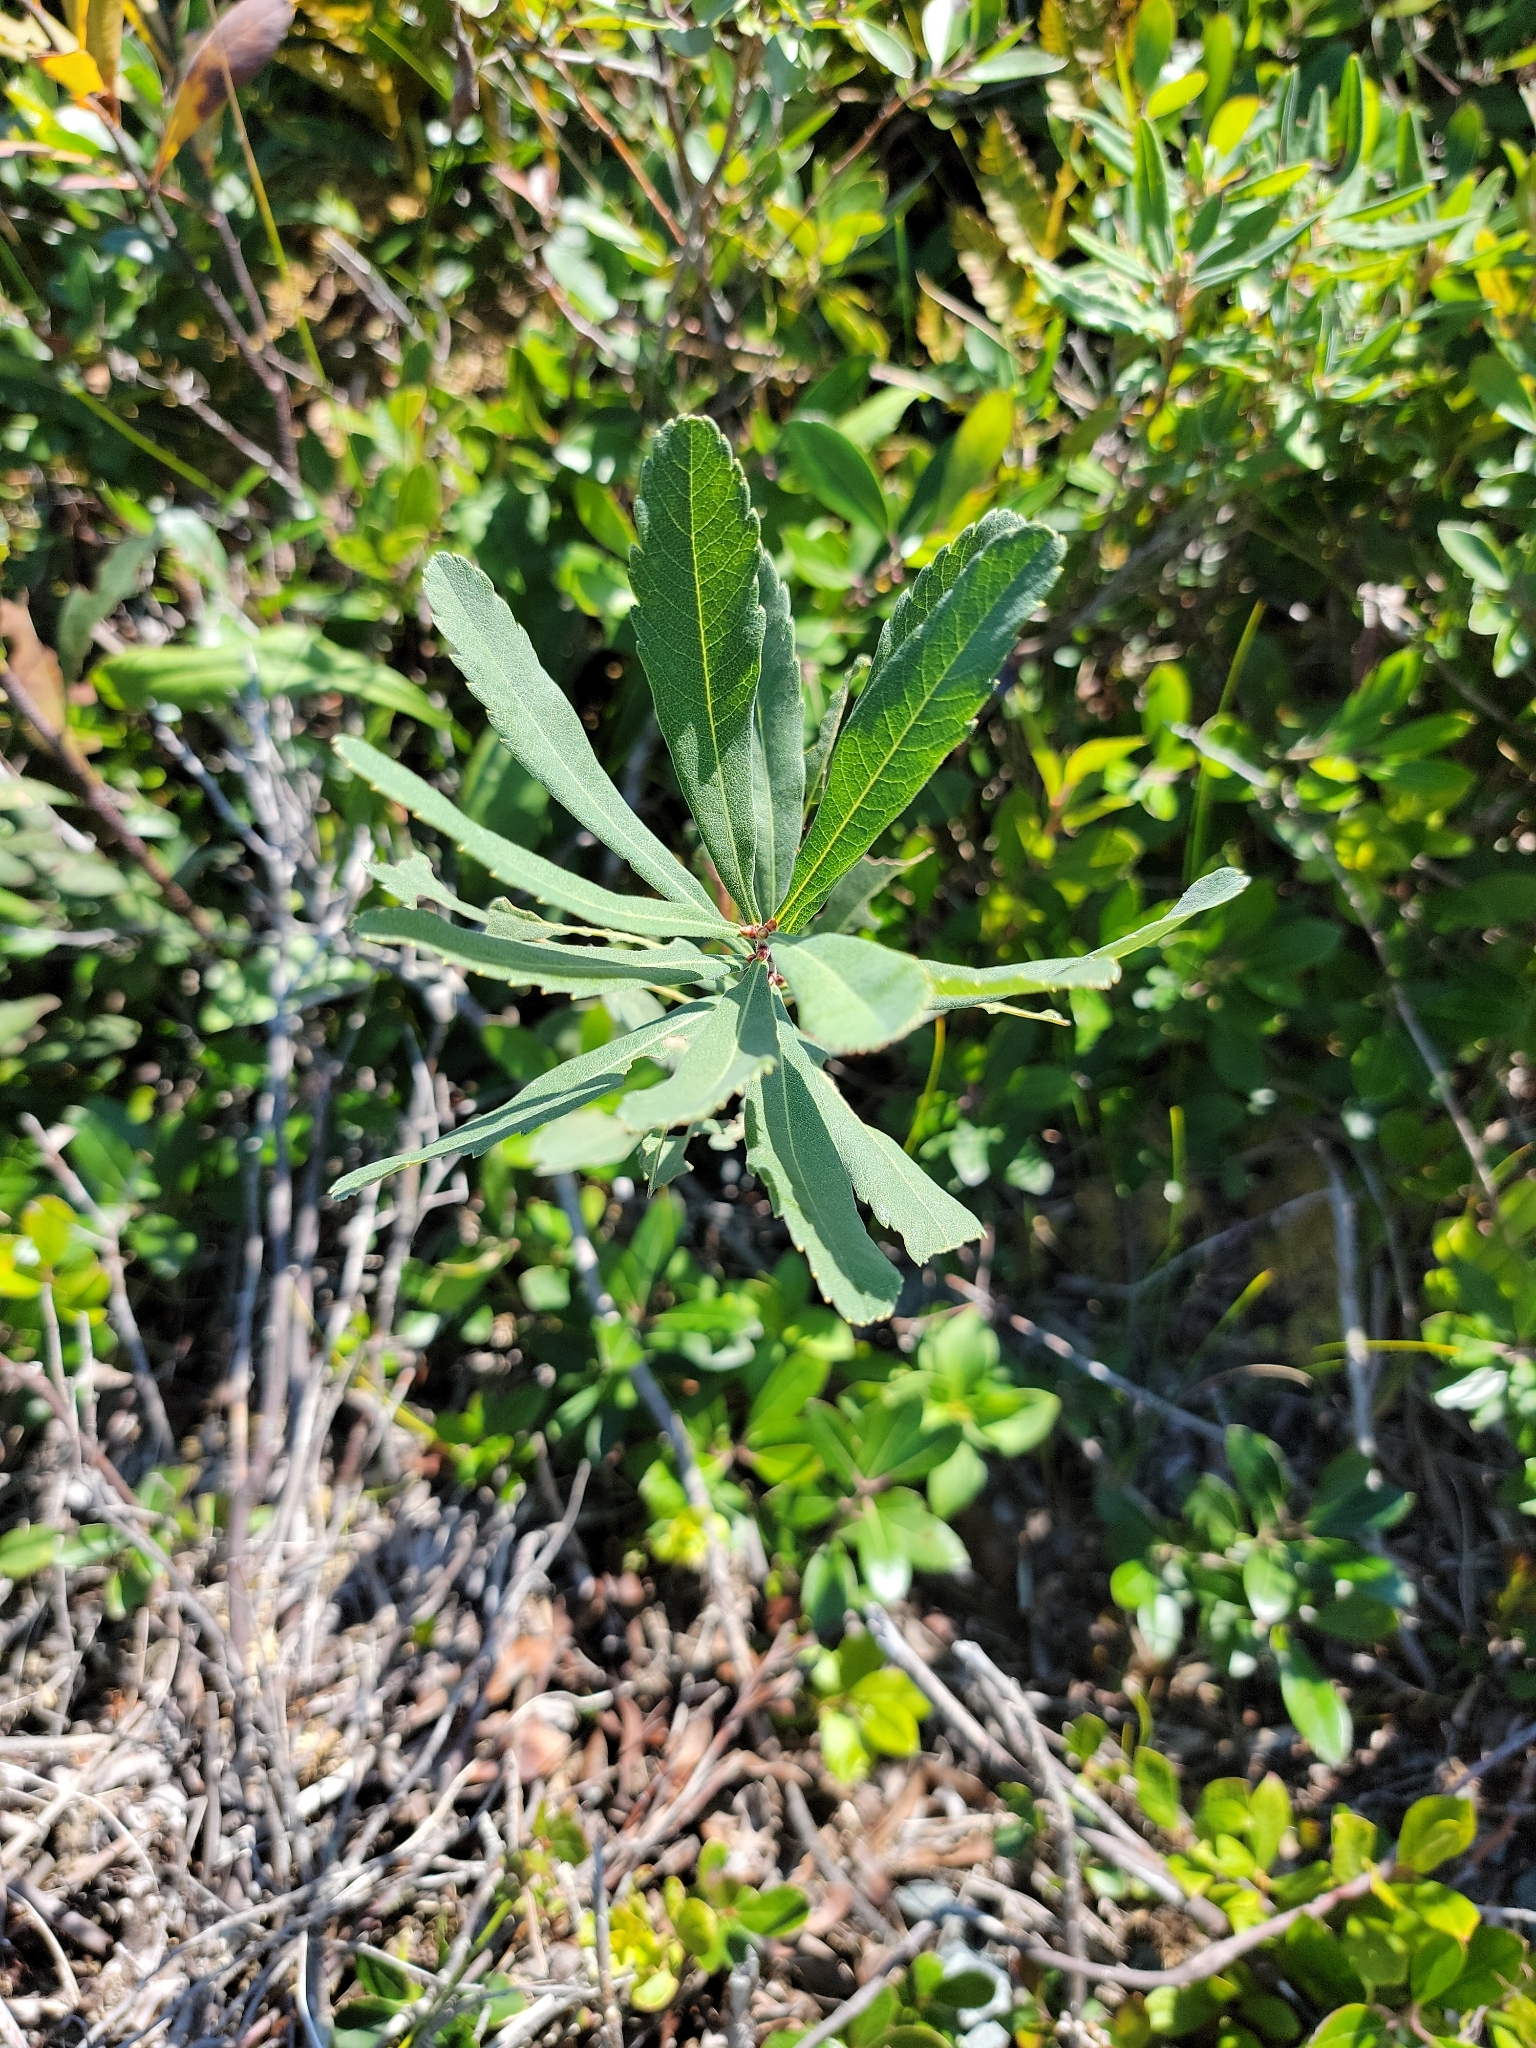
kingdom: Plantae
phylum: Tracheophyta
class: Magnoliopsida
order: Fagales
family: Myricaceae
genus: Myrica
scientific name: Myrica gale
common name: Sweet gale
